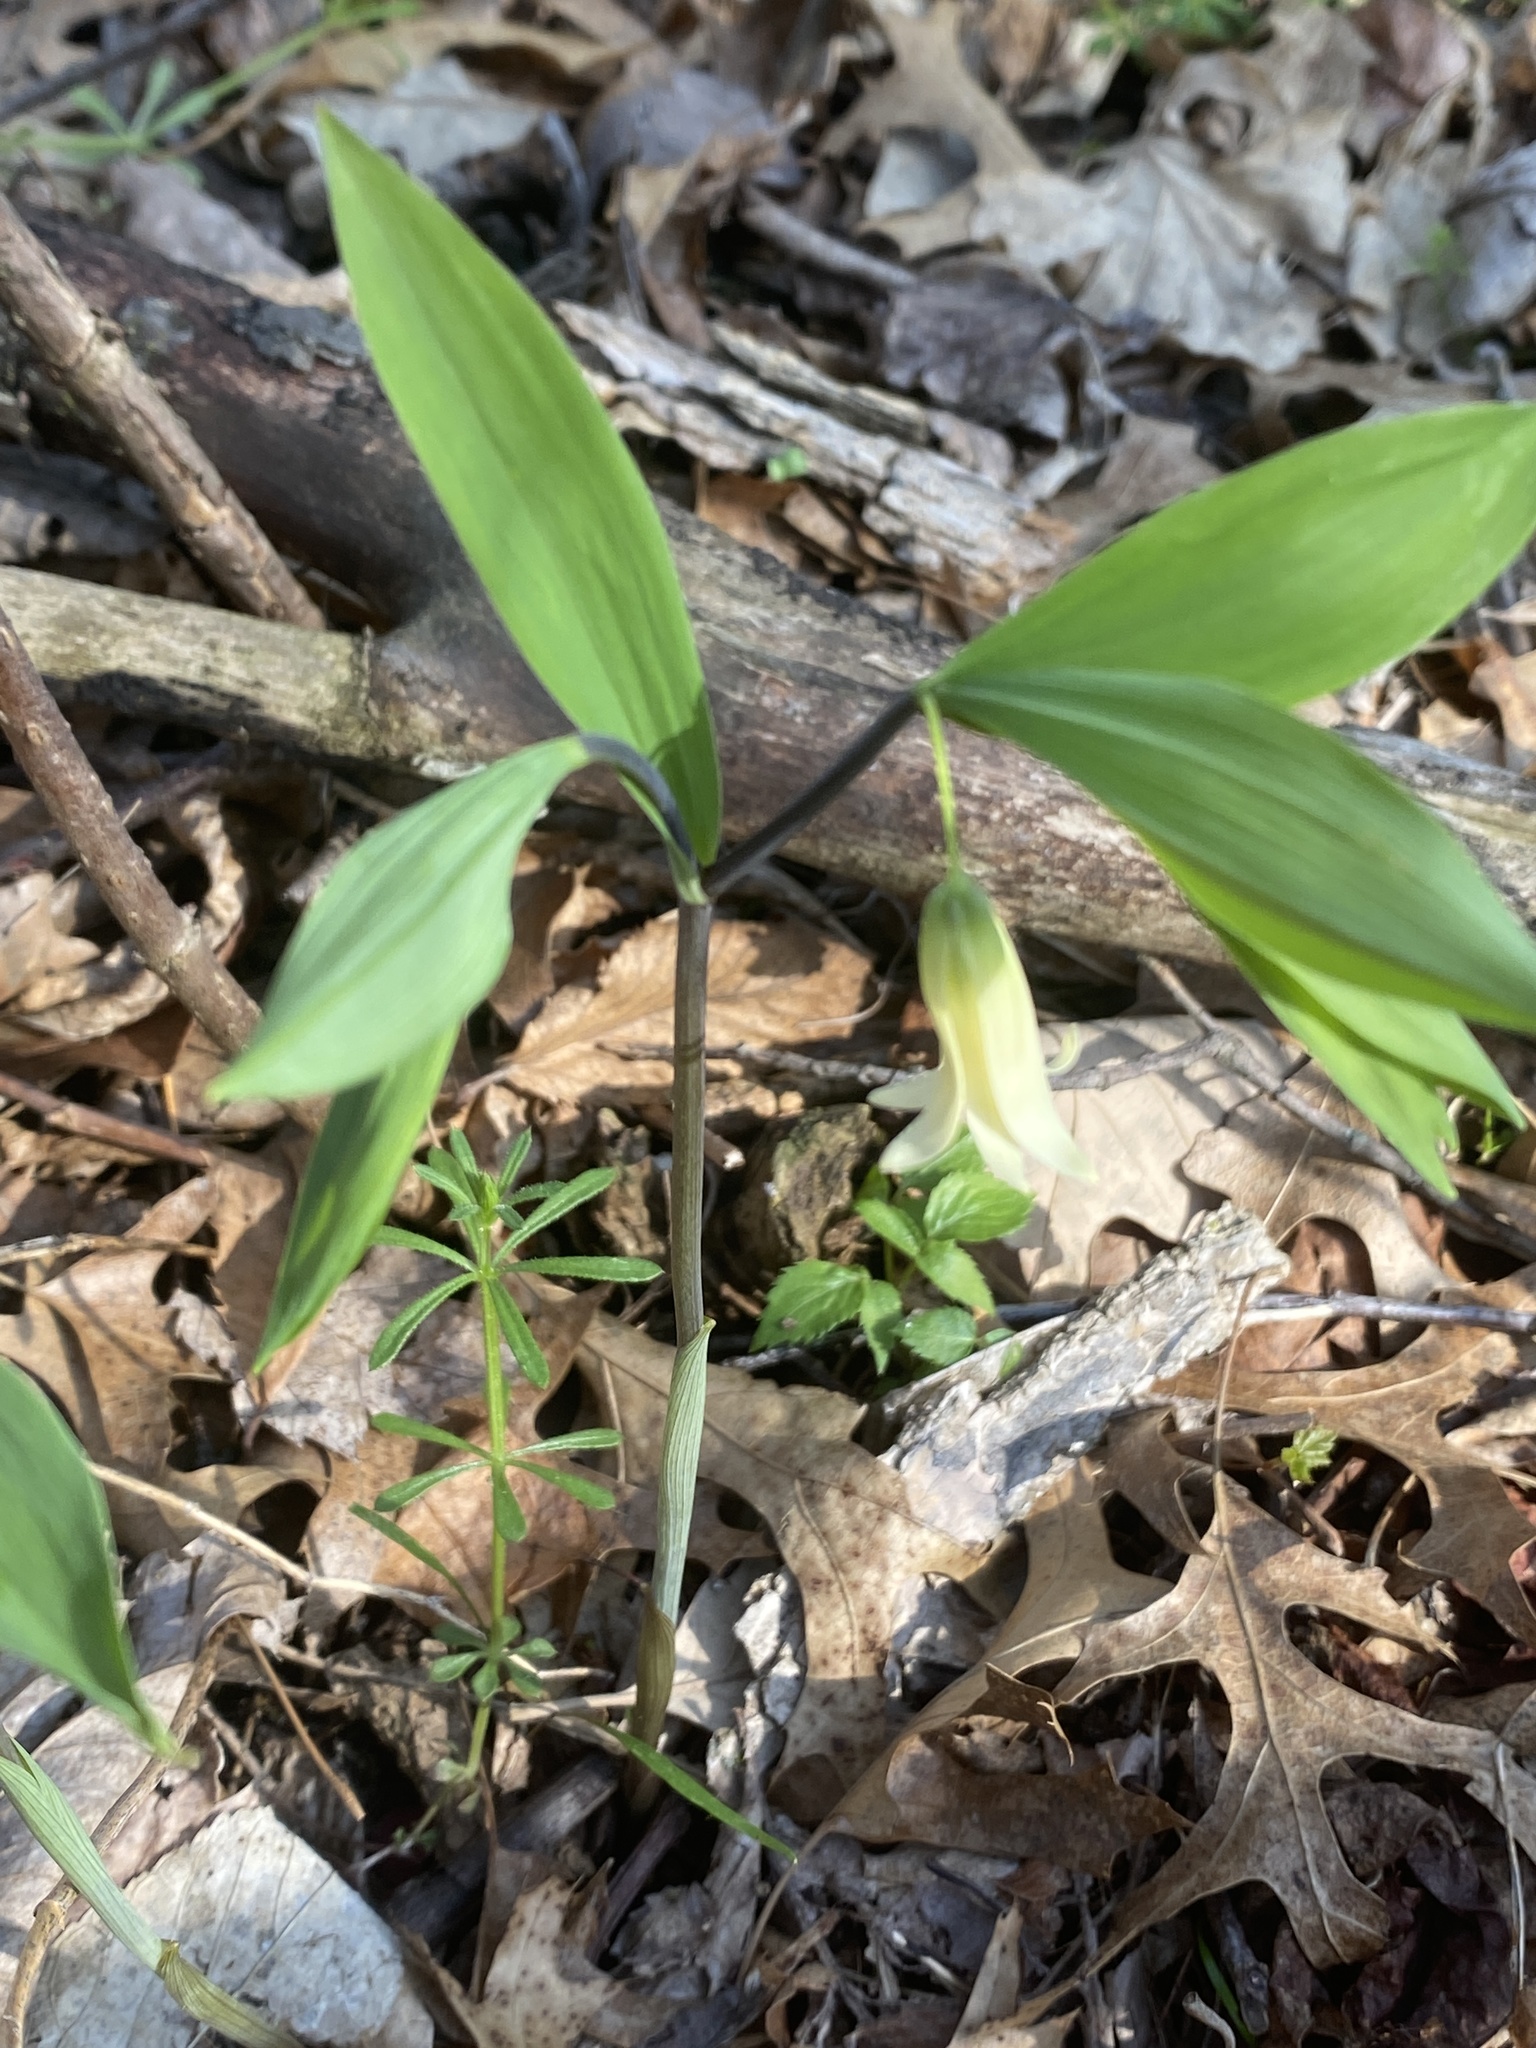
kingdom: Plantae
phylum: Tracheophyta
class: Liliopsida
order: Liliales
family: Colchicaceae
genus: Uvularia
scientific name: Uvularia sessilifolia
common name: Straw-lily
